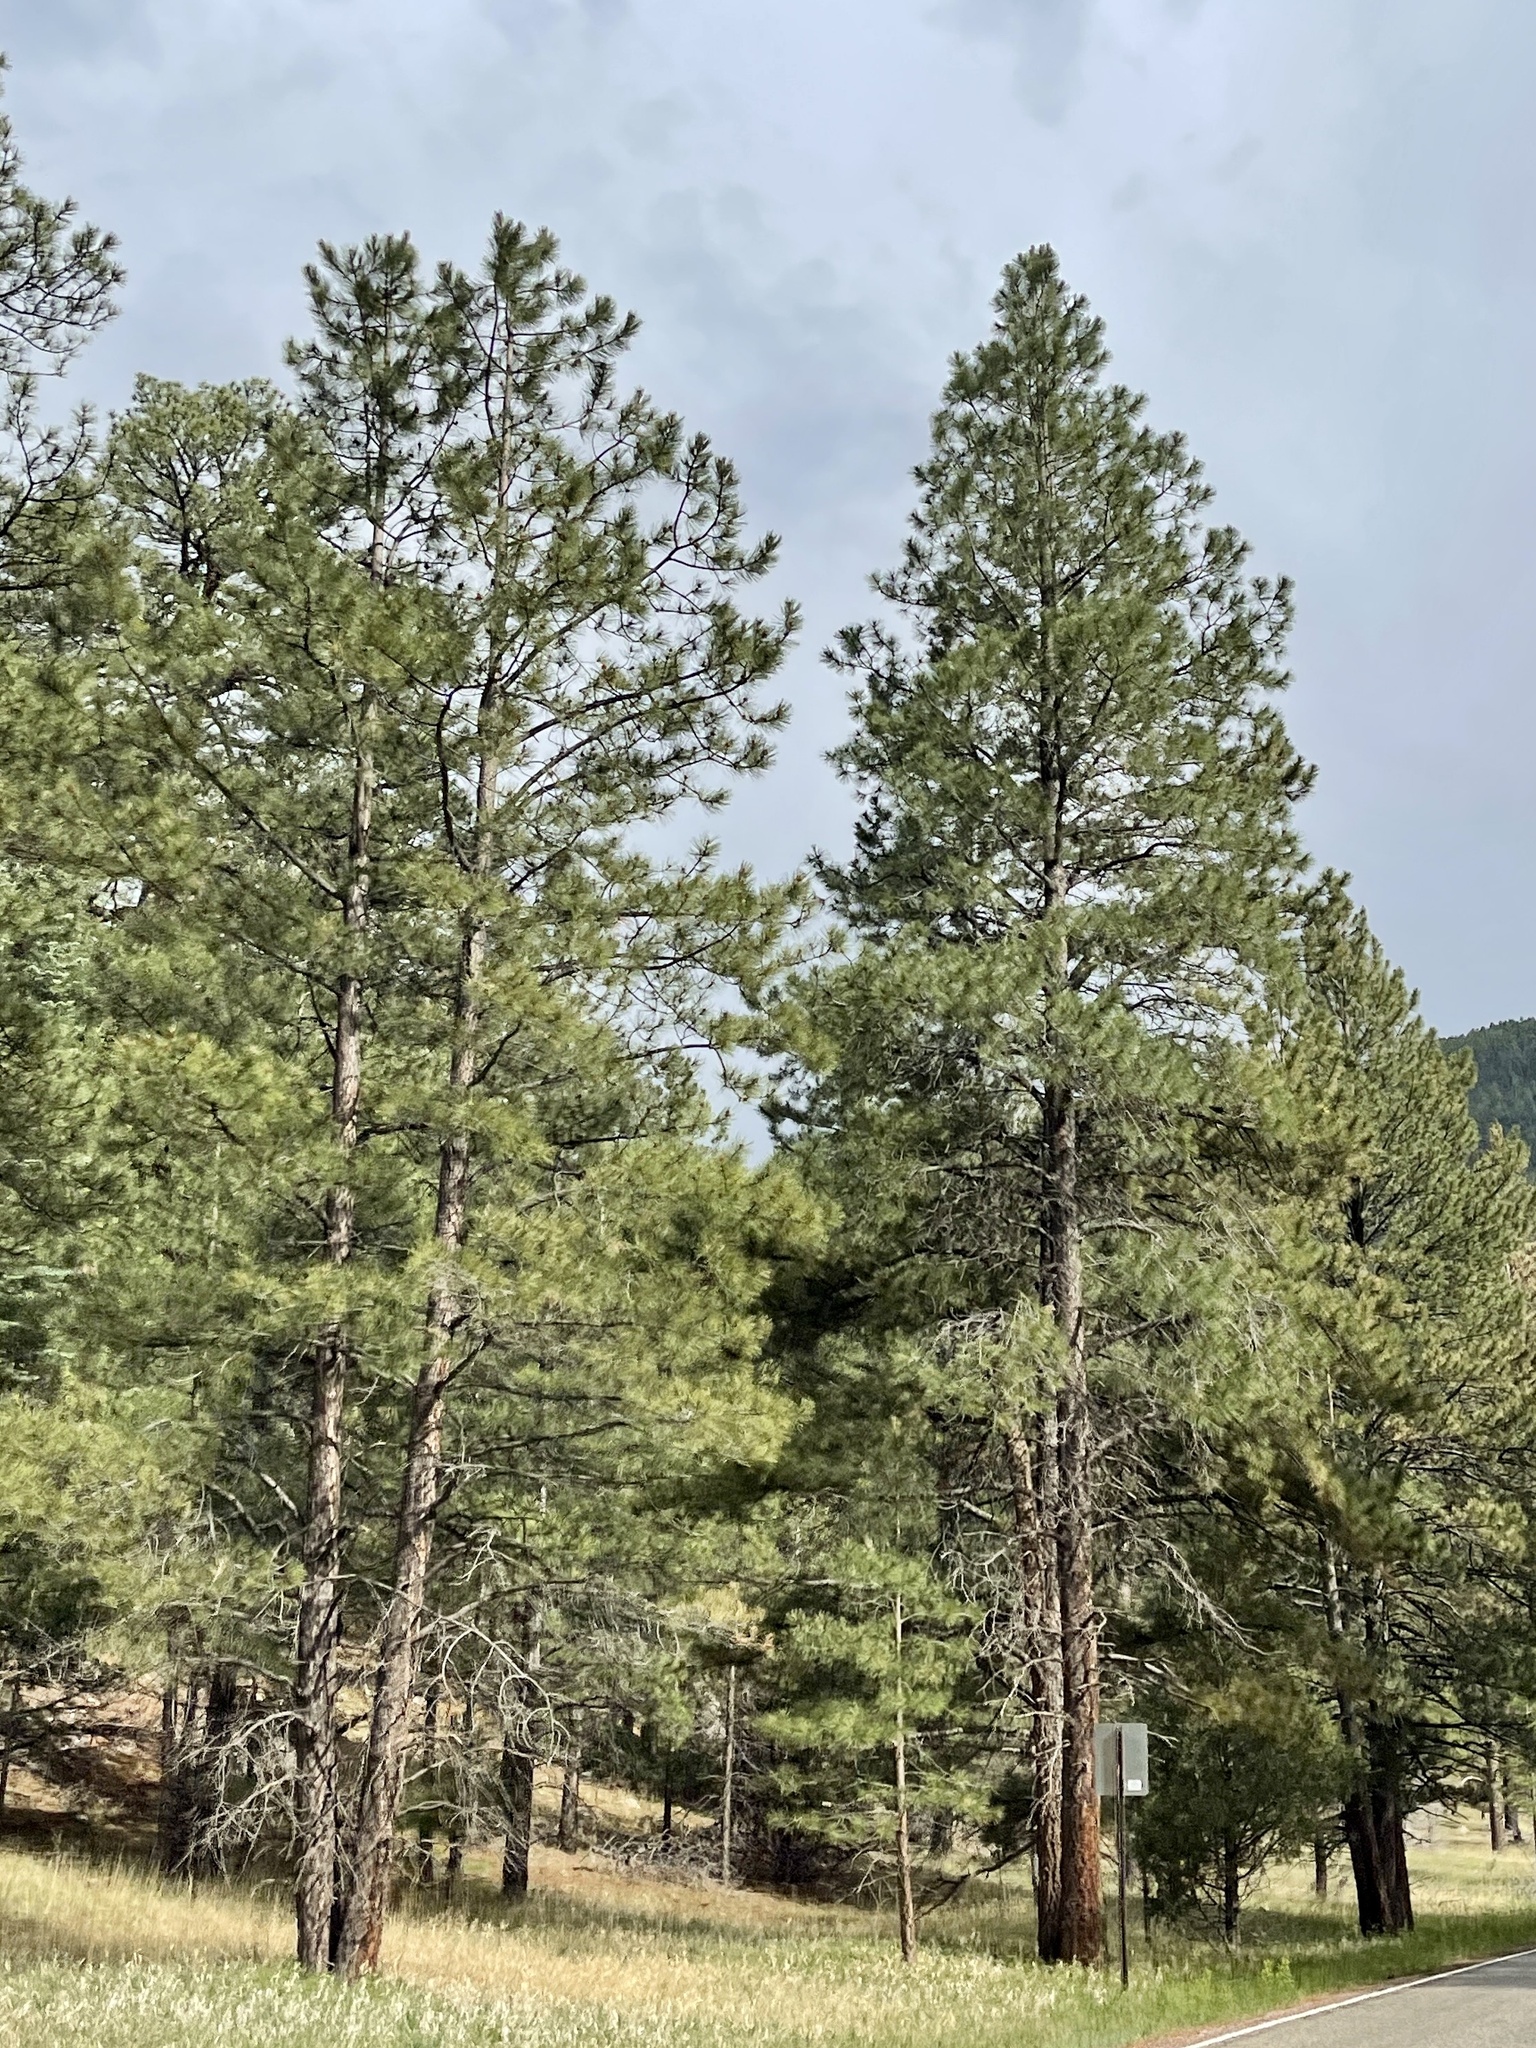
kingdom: Plantae
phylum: Tracheophyta
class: Pinopsida
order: Pinales
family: Pinaceae
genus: Pinus
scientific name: Pinus ponderosa
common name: Western yellow-pine
